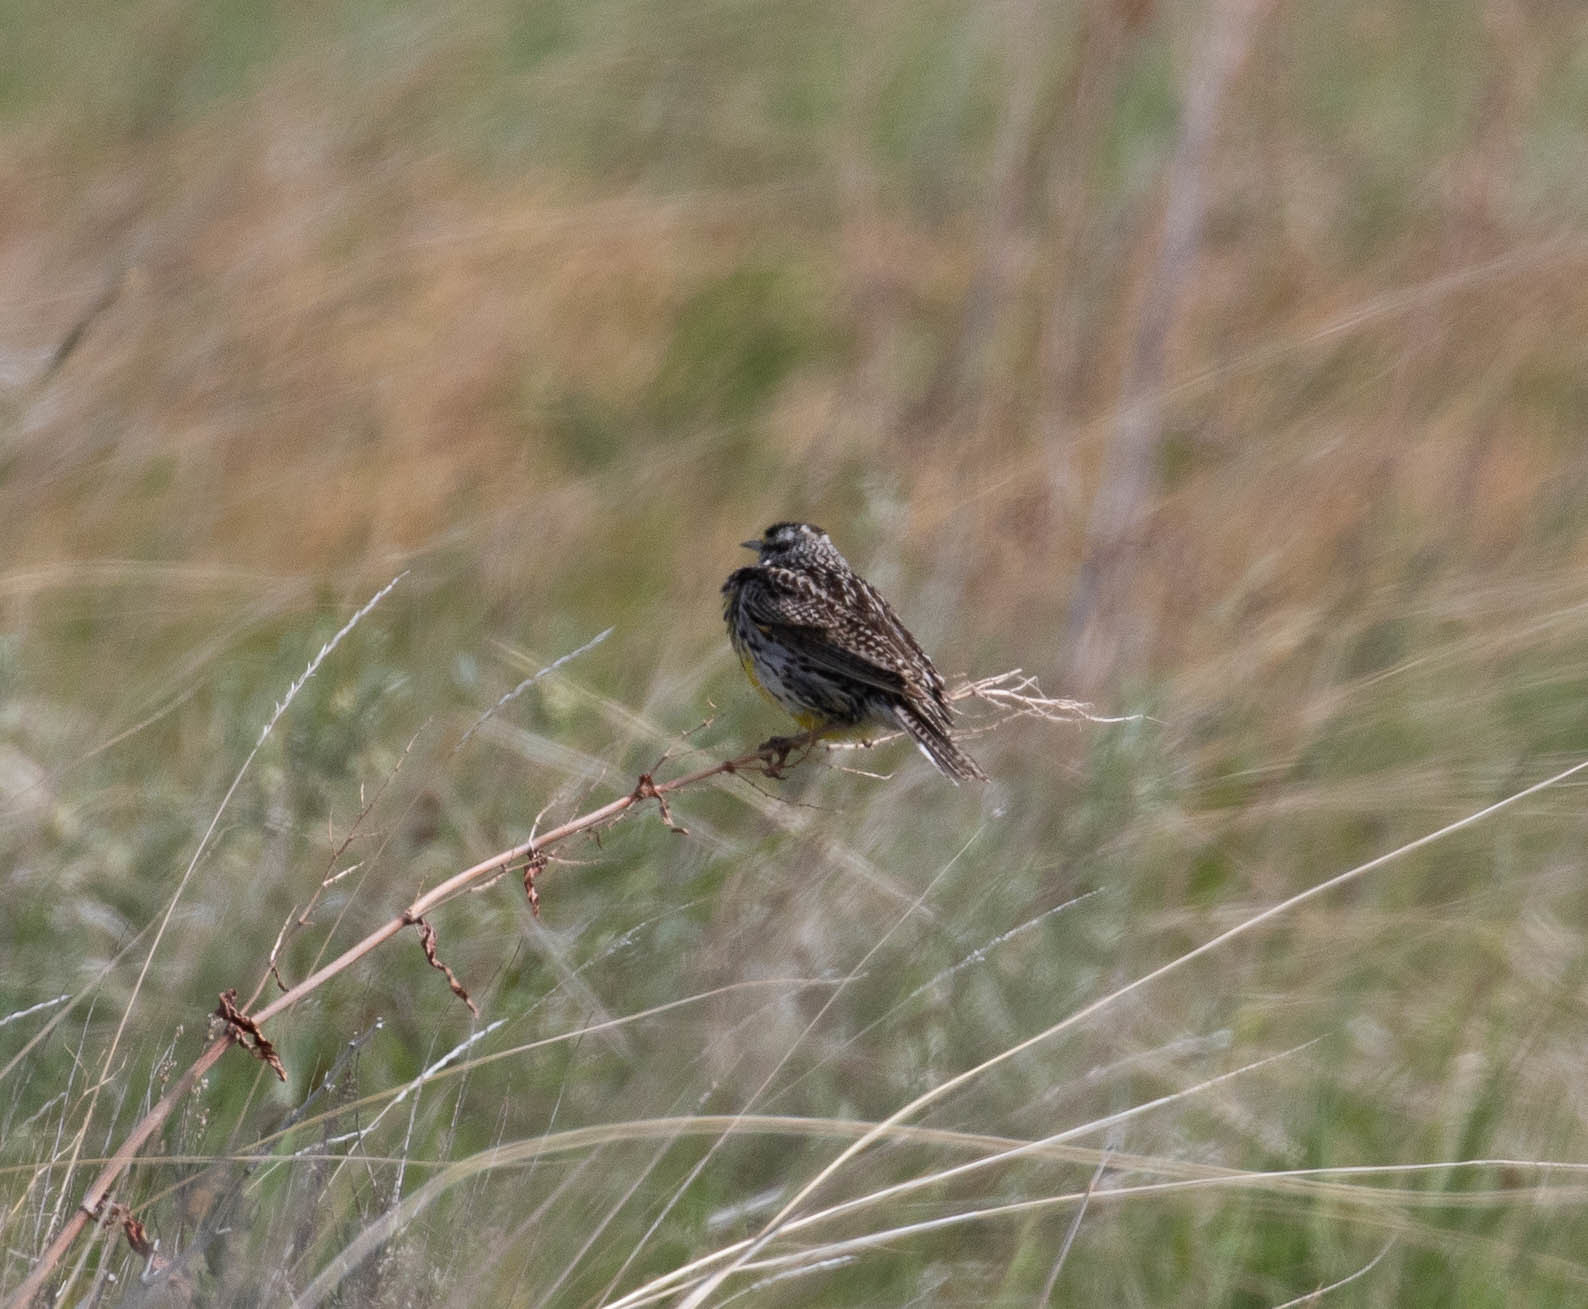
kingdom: Animalia
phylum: Chordata
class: Aves
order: Passeriformes
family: Icteridae
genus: Sturnella
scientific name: Sturnella neglecta
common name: Western meadowlark
